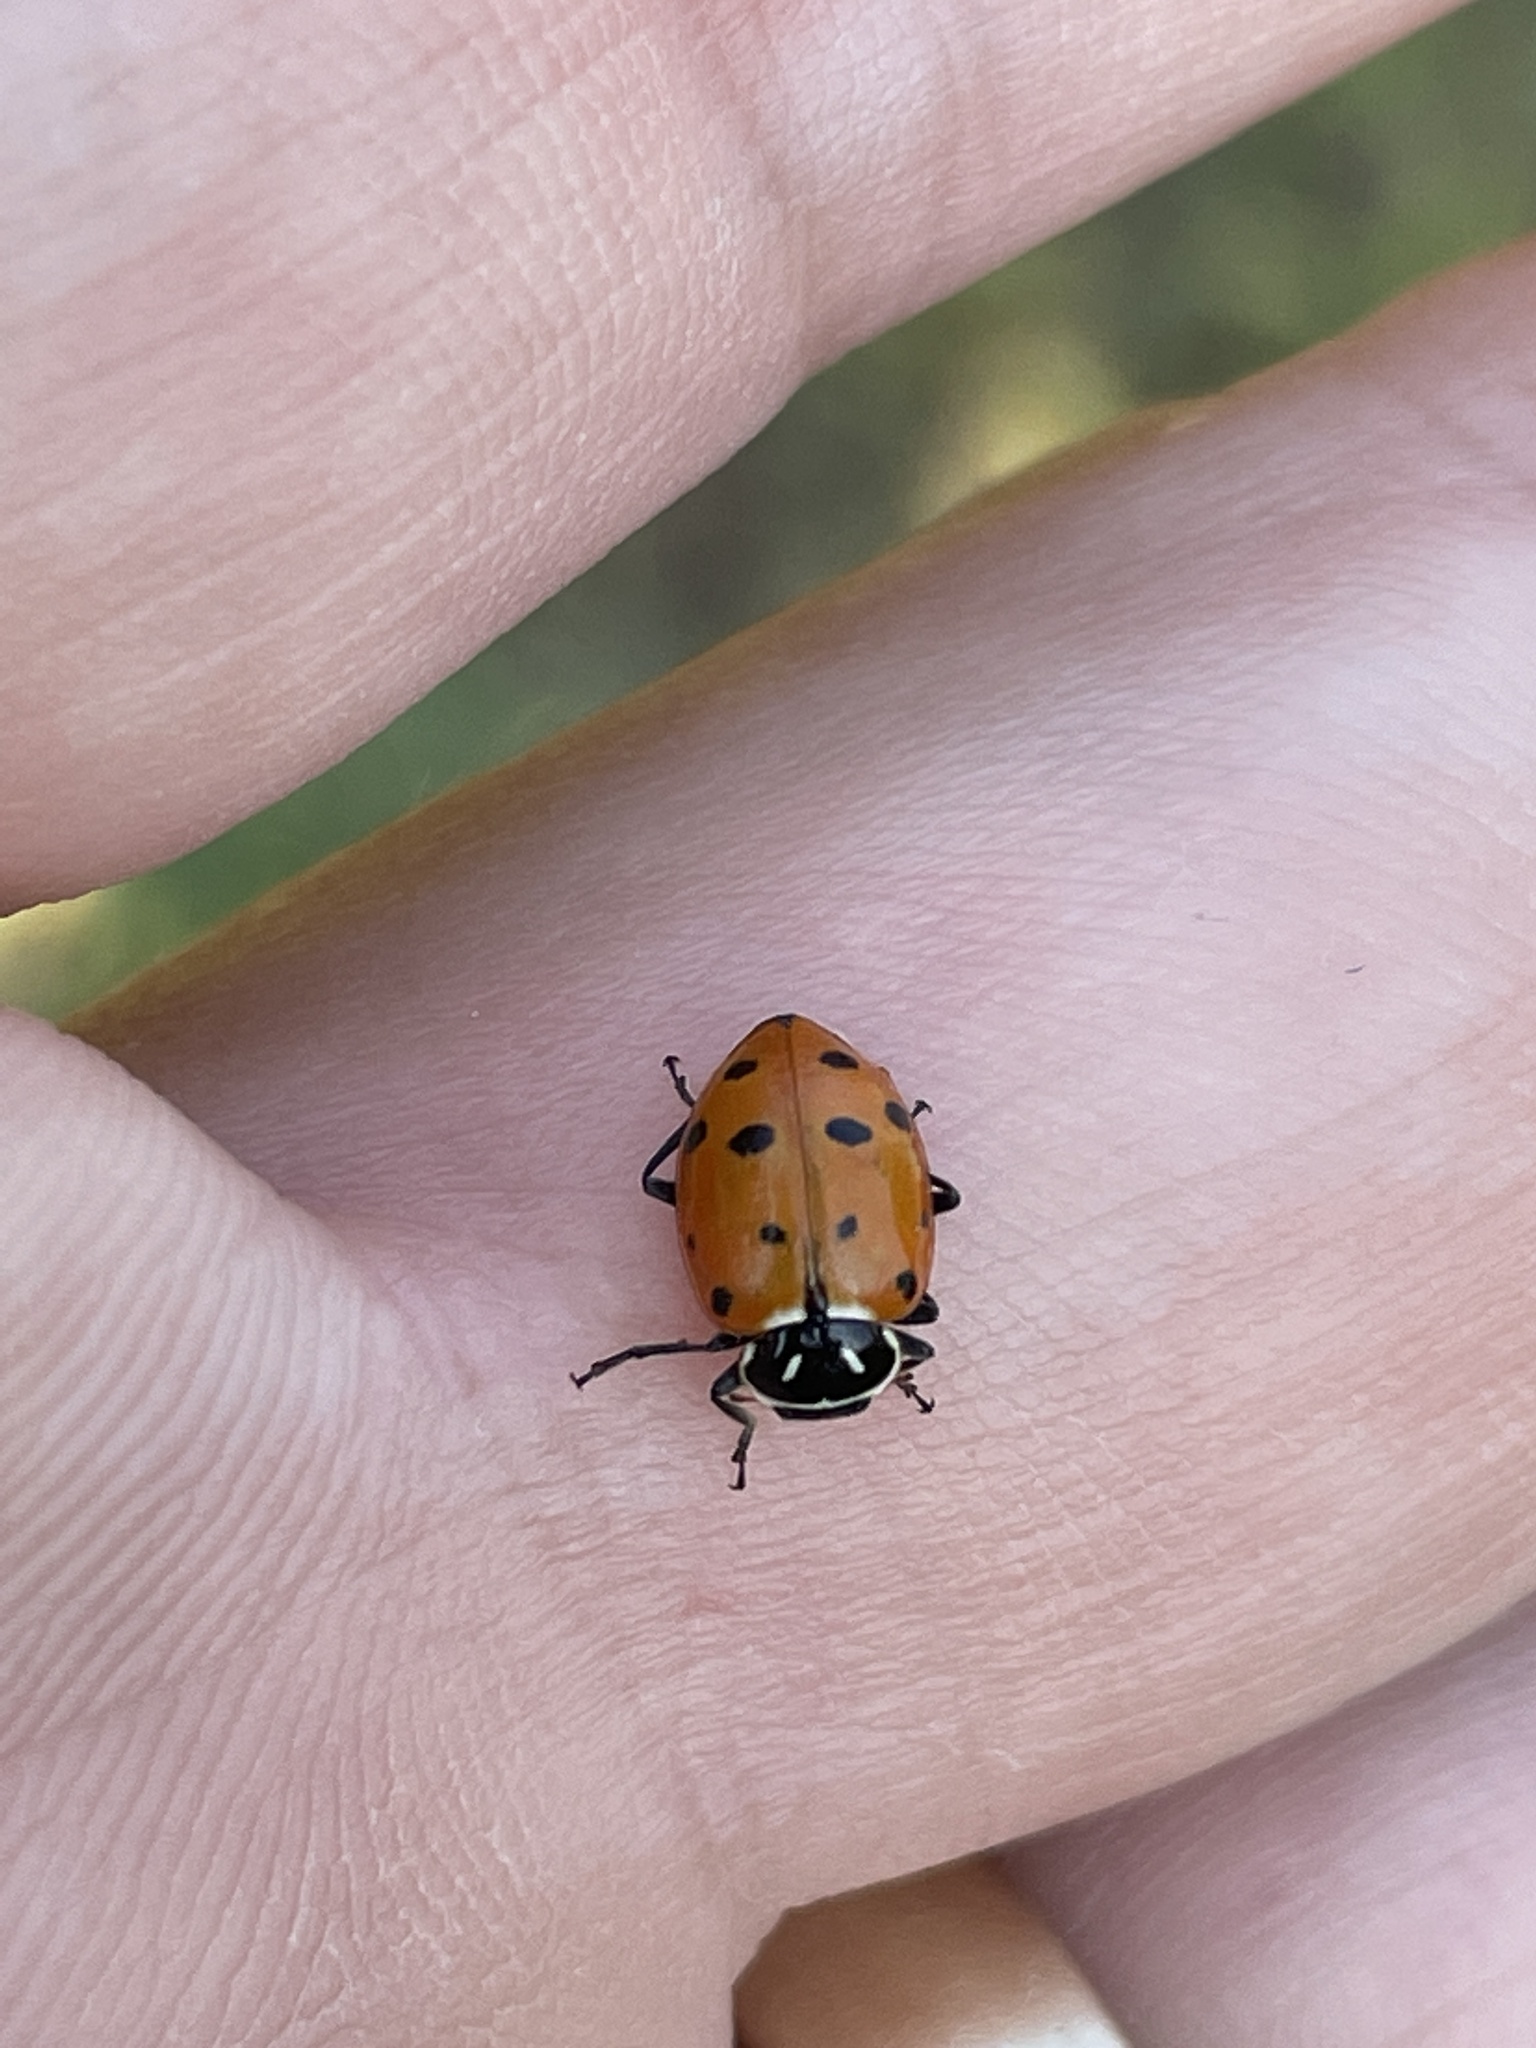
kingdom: Animalia
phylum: Arthropoda
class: Insecta
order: Coleoptera
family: Coccinellidae
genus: Hippodamia
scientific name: Hippodamia convergens
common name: Convergent lady beetle
